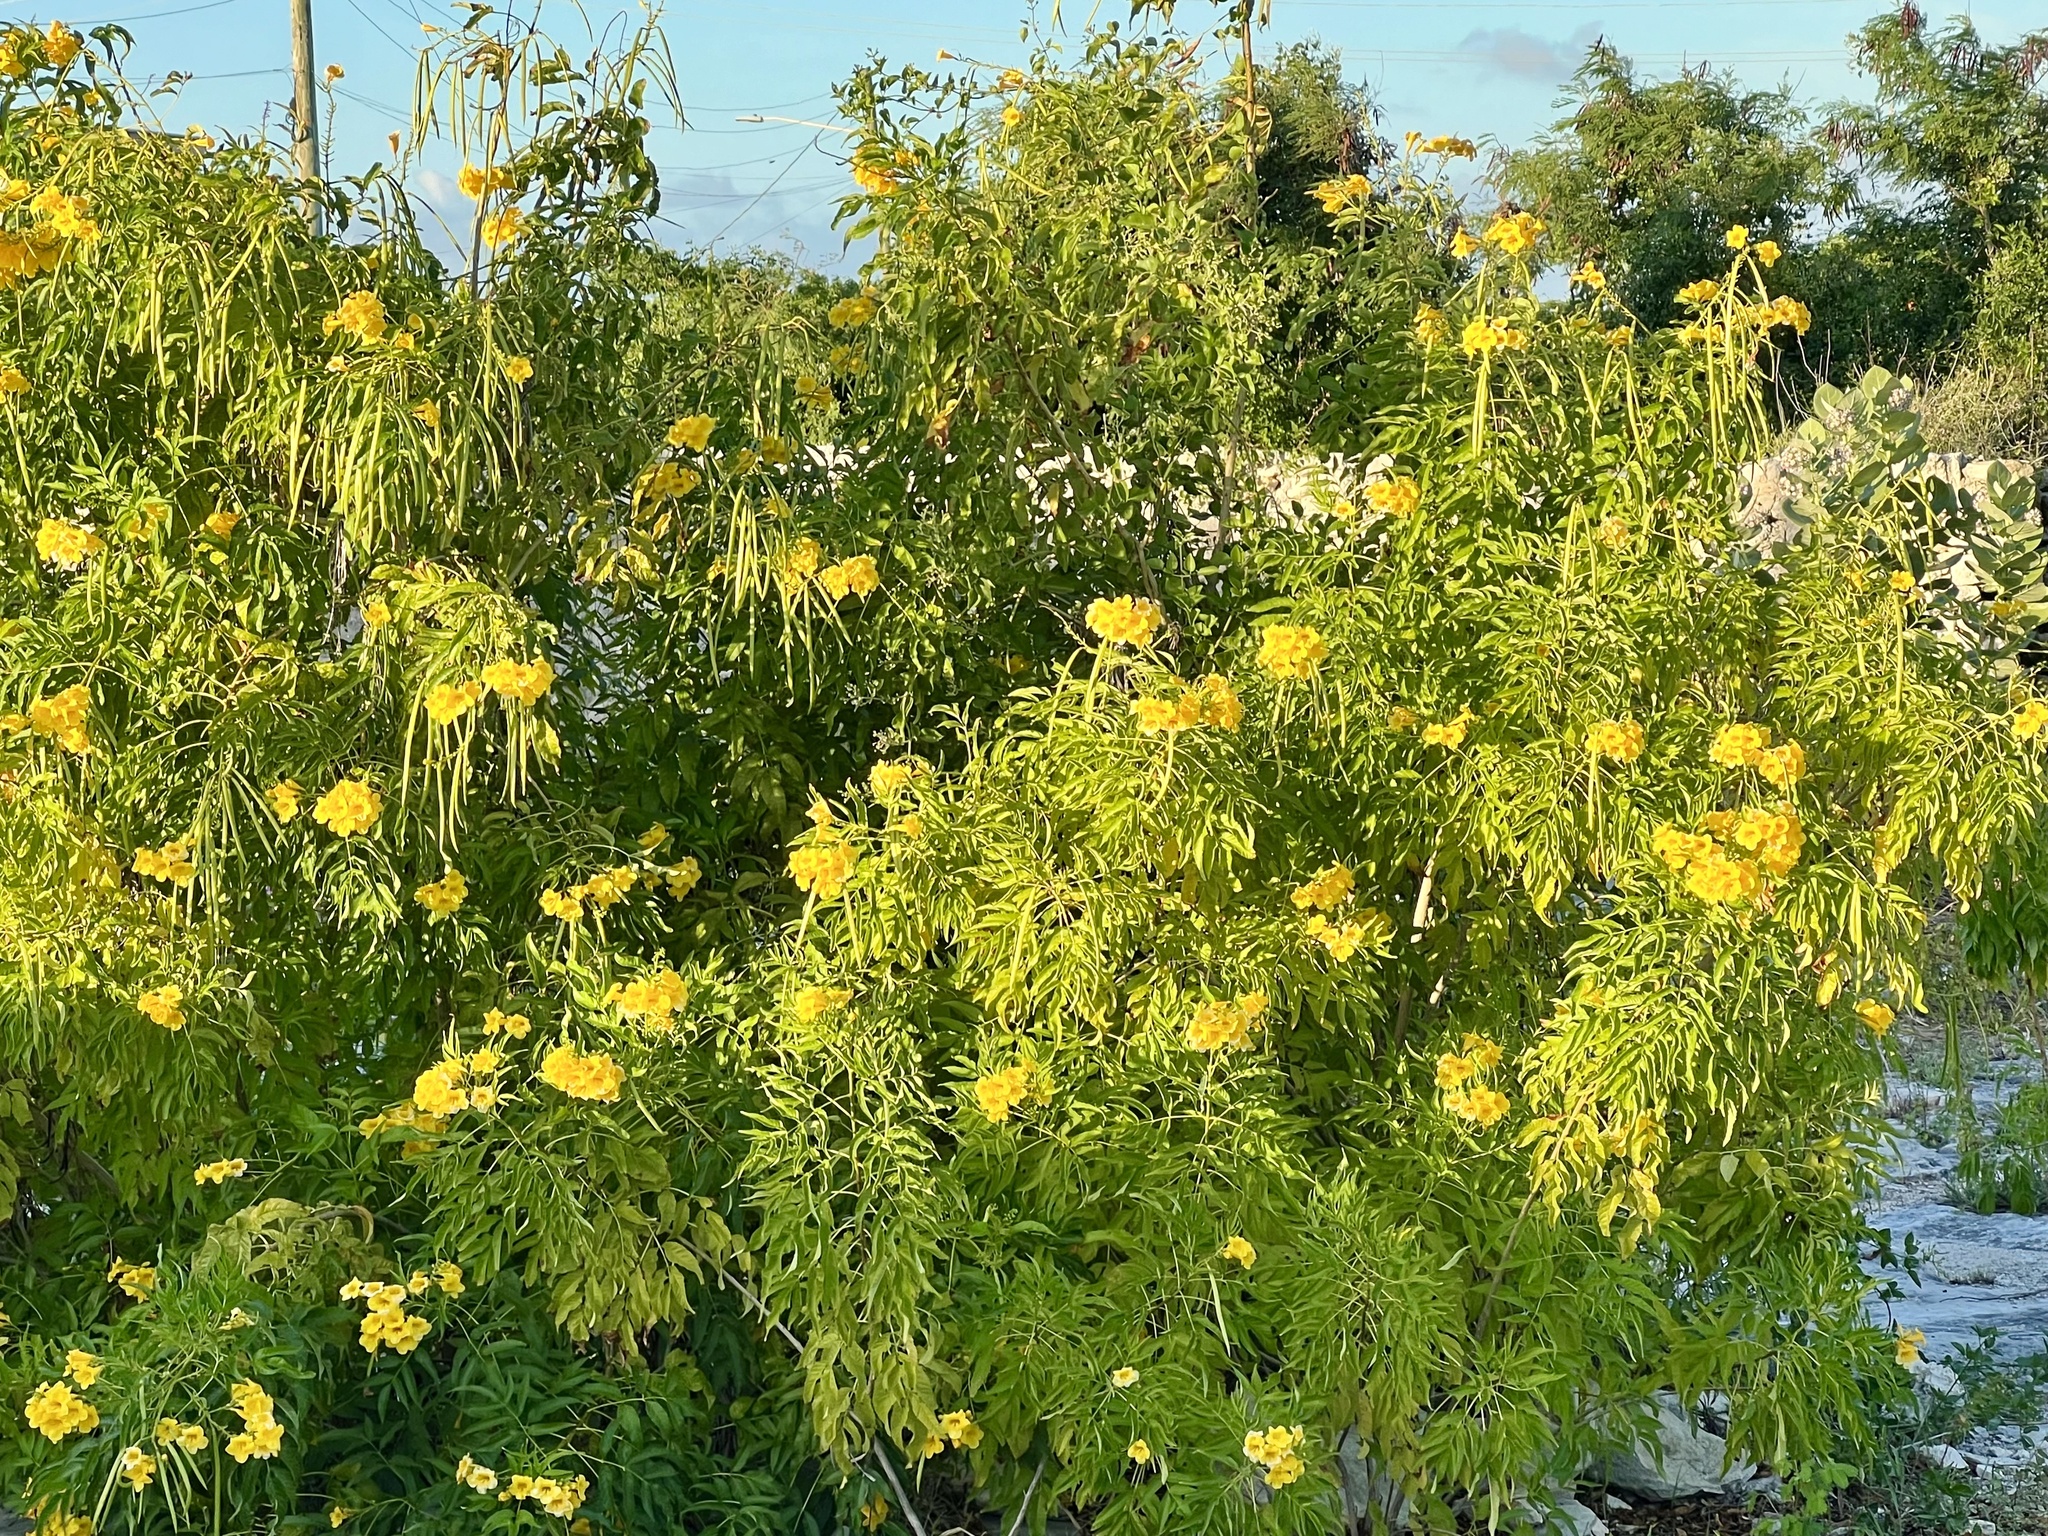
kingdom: Plantae
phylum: Tracheophyta
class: Magnoliopsida
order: Lamiales
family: Bignoniaceae
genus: Tecoma
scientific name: Tecoma stans
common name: Yellow trumpetbush
